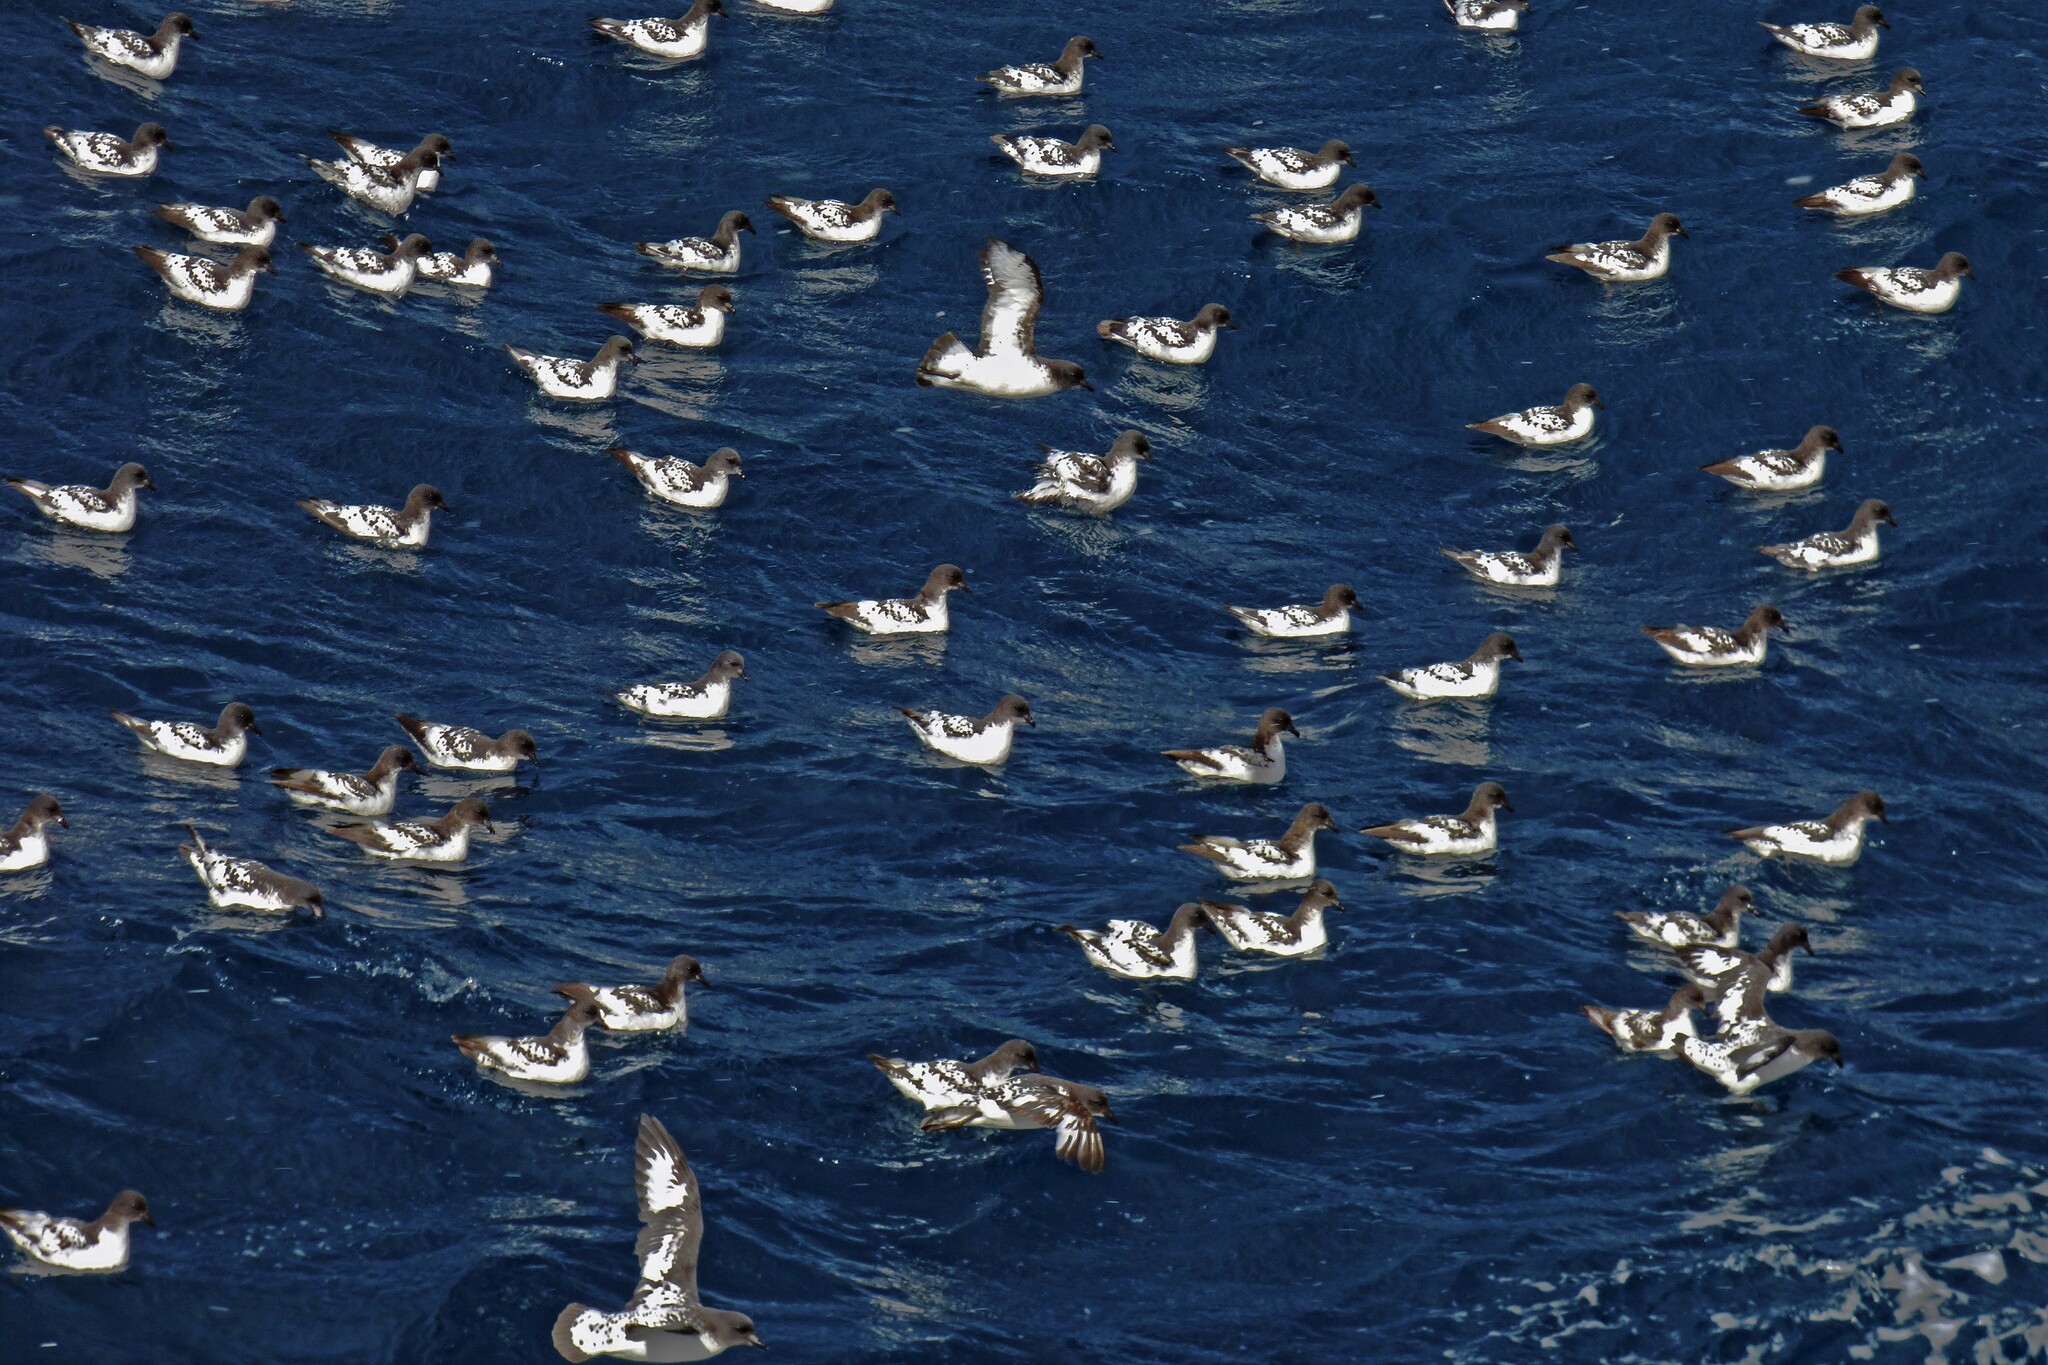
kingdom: Animalia
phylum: Chordata
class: Aves
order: Procellariiformes
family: Procellariidae
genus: Daption
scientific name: Daption capense
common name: Cape petrel
